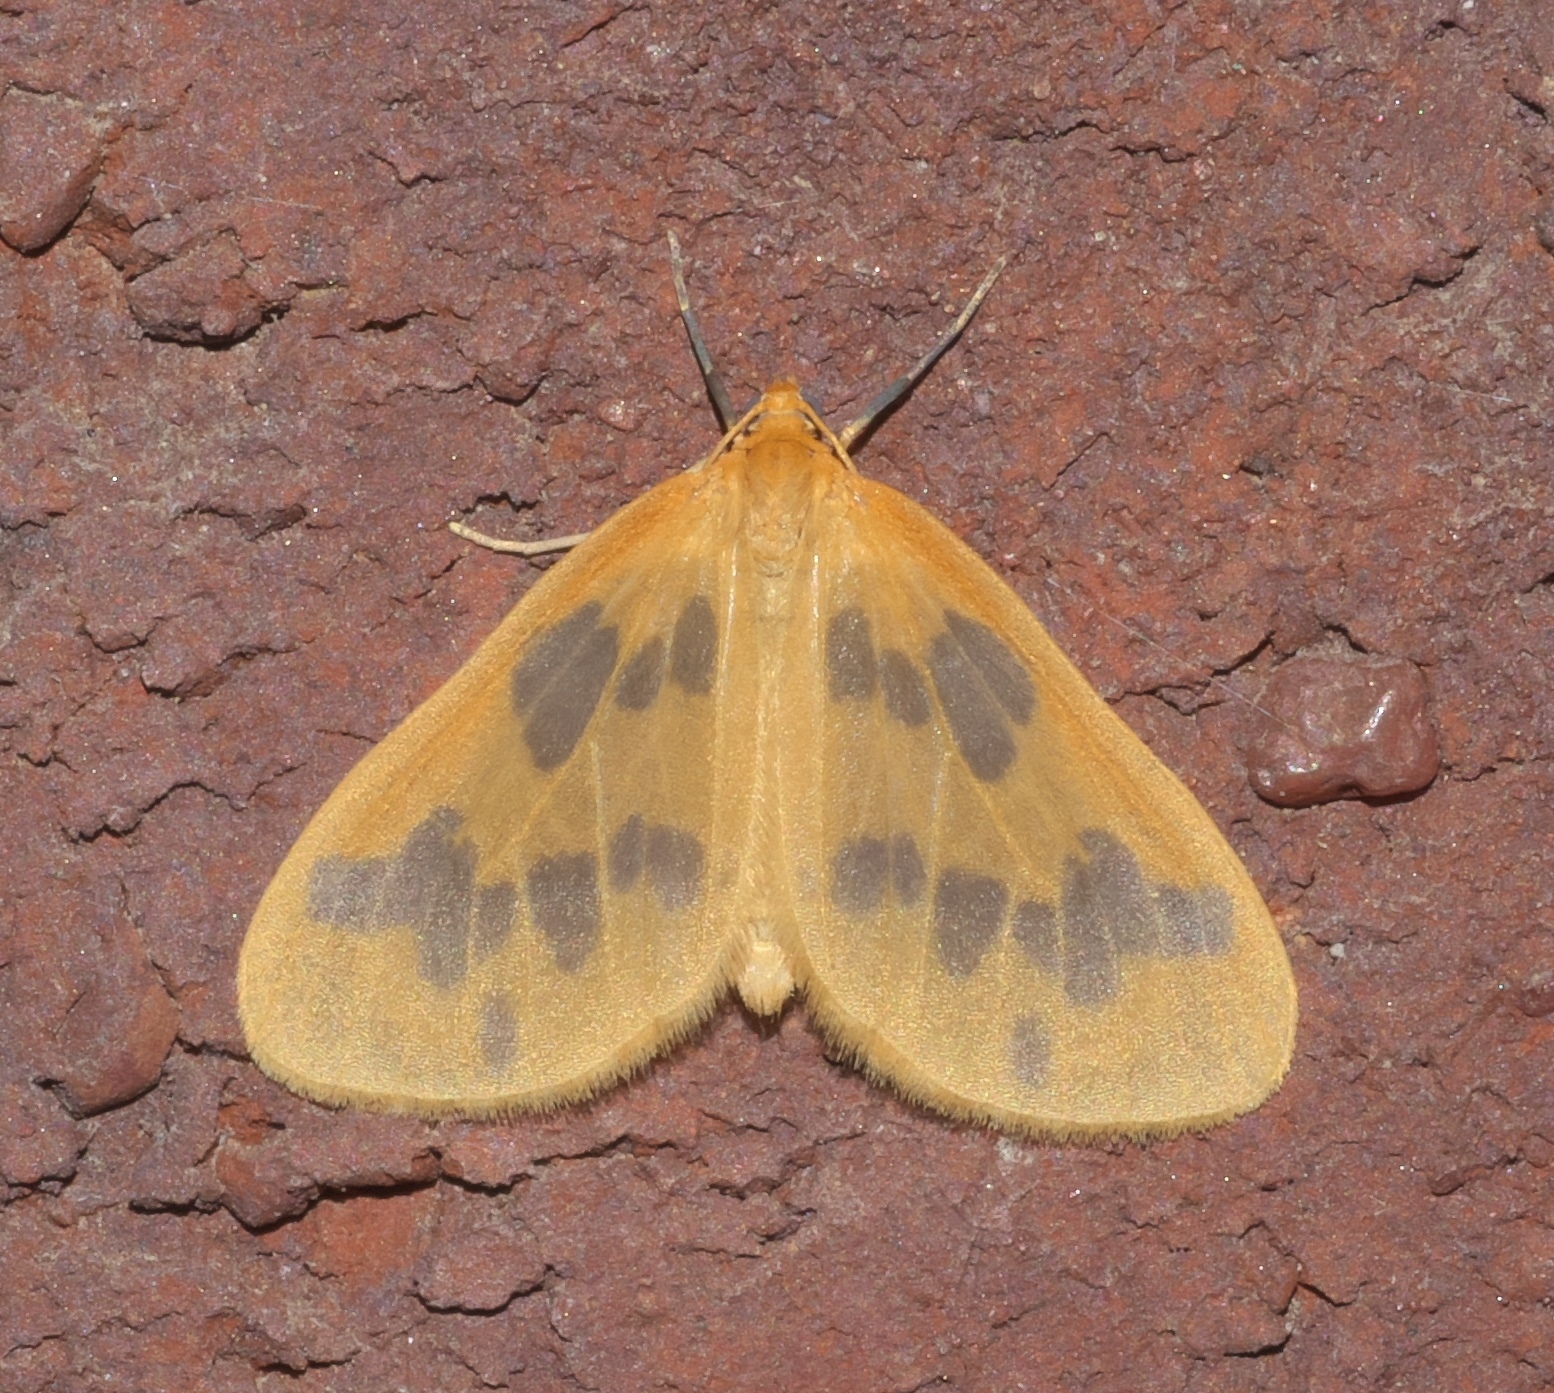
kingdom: Animalia
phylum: Arthropoda
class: Insecta
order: Lepidoptera
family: Geometridae
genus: Eubaphe
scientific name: Eubaphe mendica
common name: Beggar
